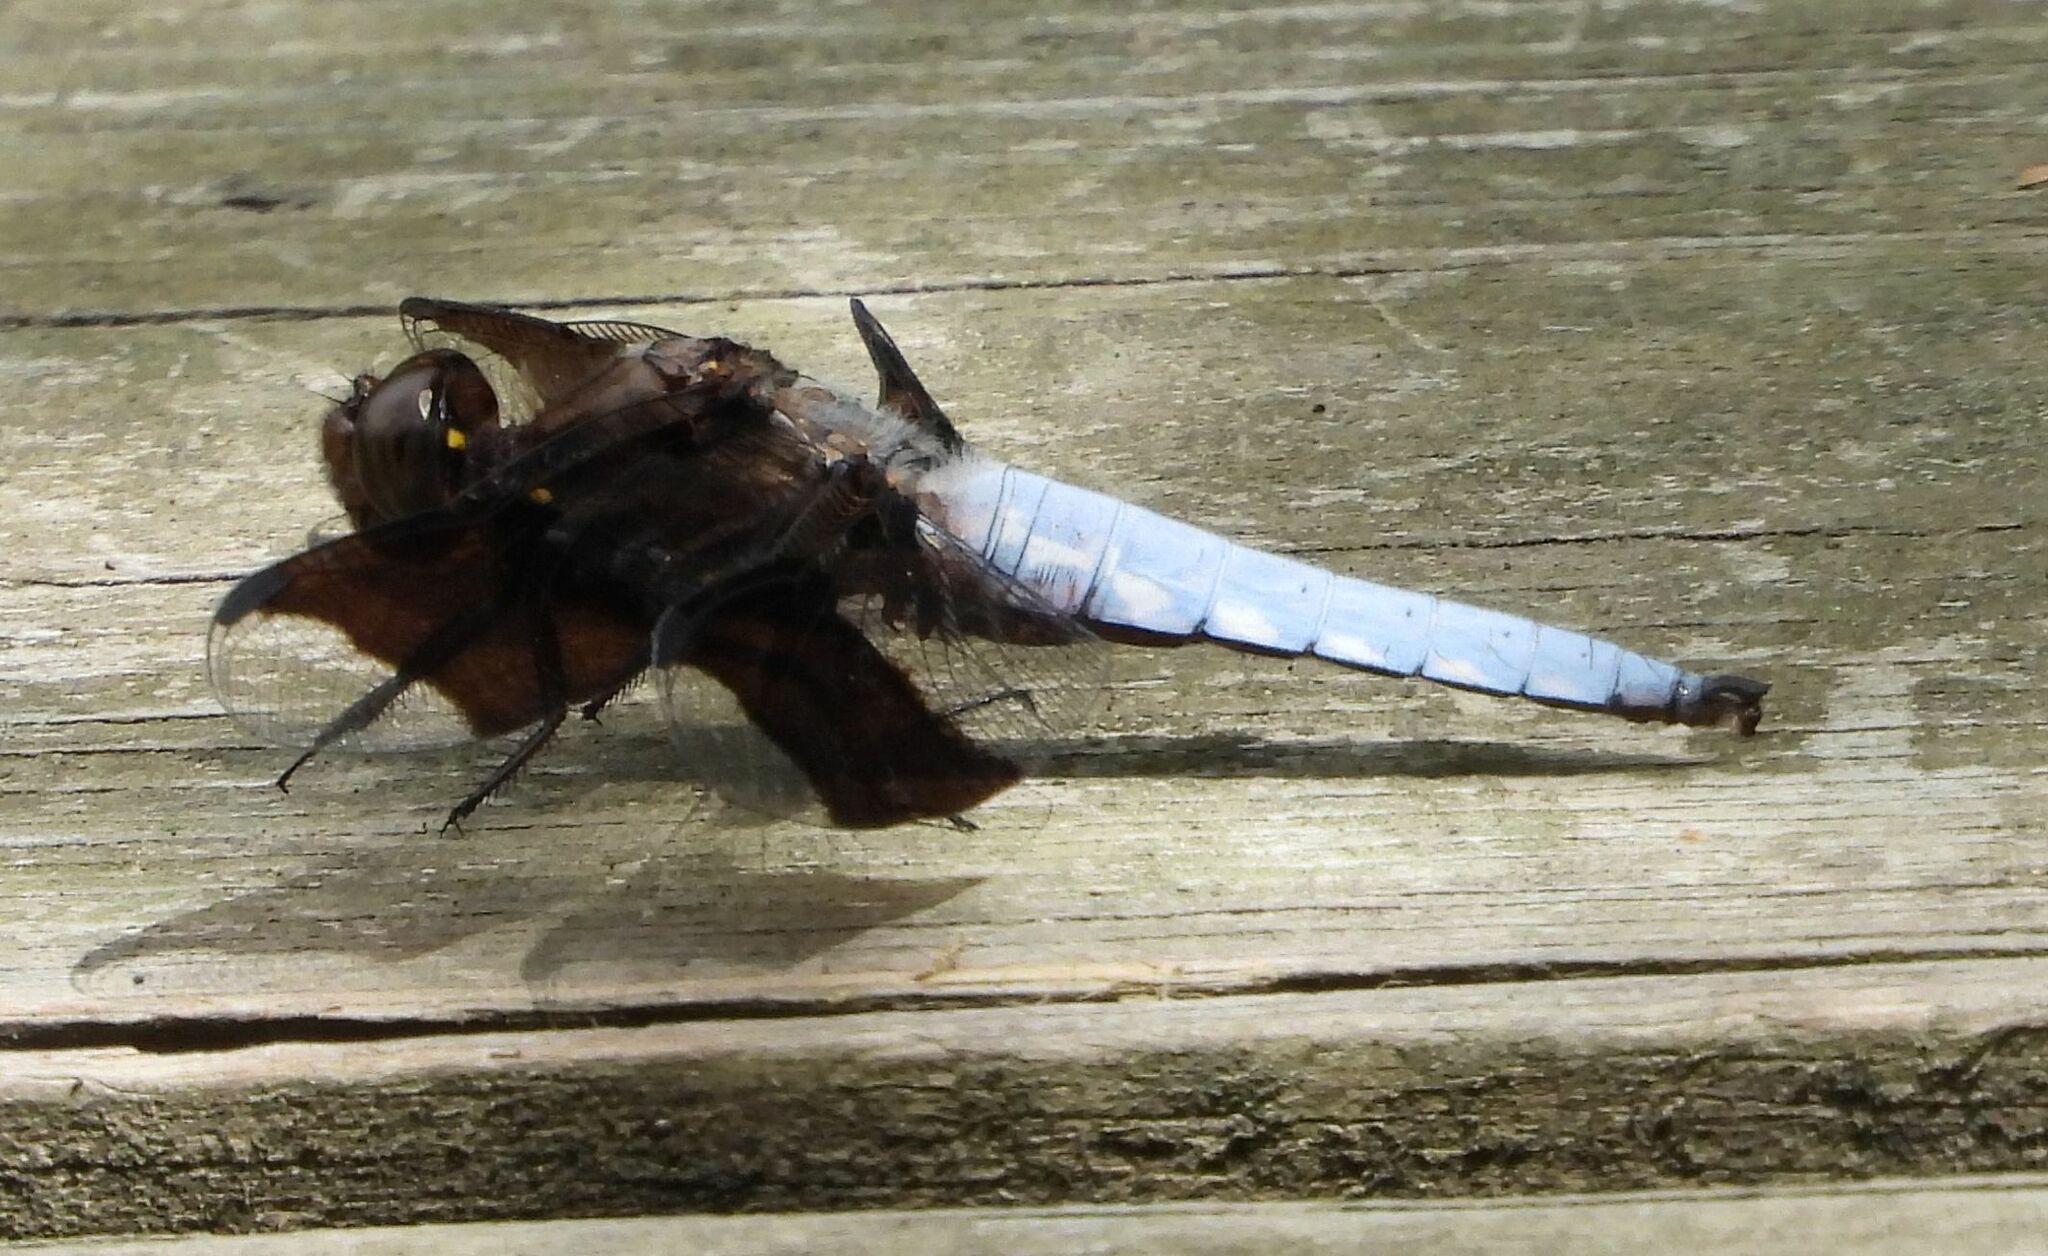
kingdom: Animalia
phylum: Arthropoda
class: Insecta
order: Odonata
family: Libellulidae
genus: Plathemis
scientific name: Plathemis lydia
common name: Common whitetail
